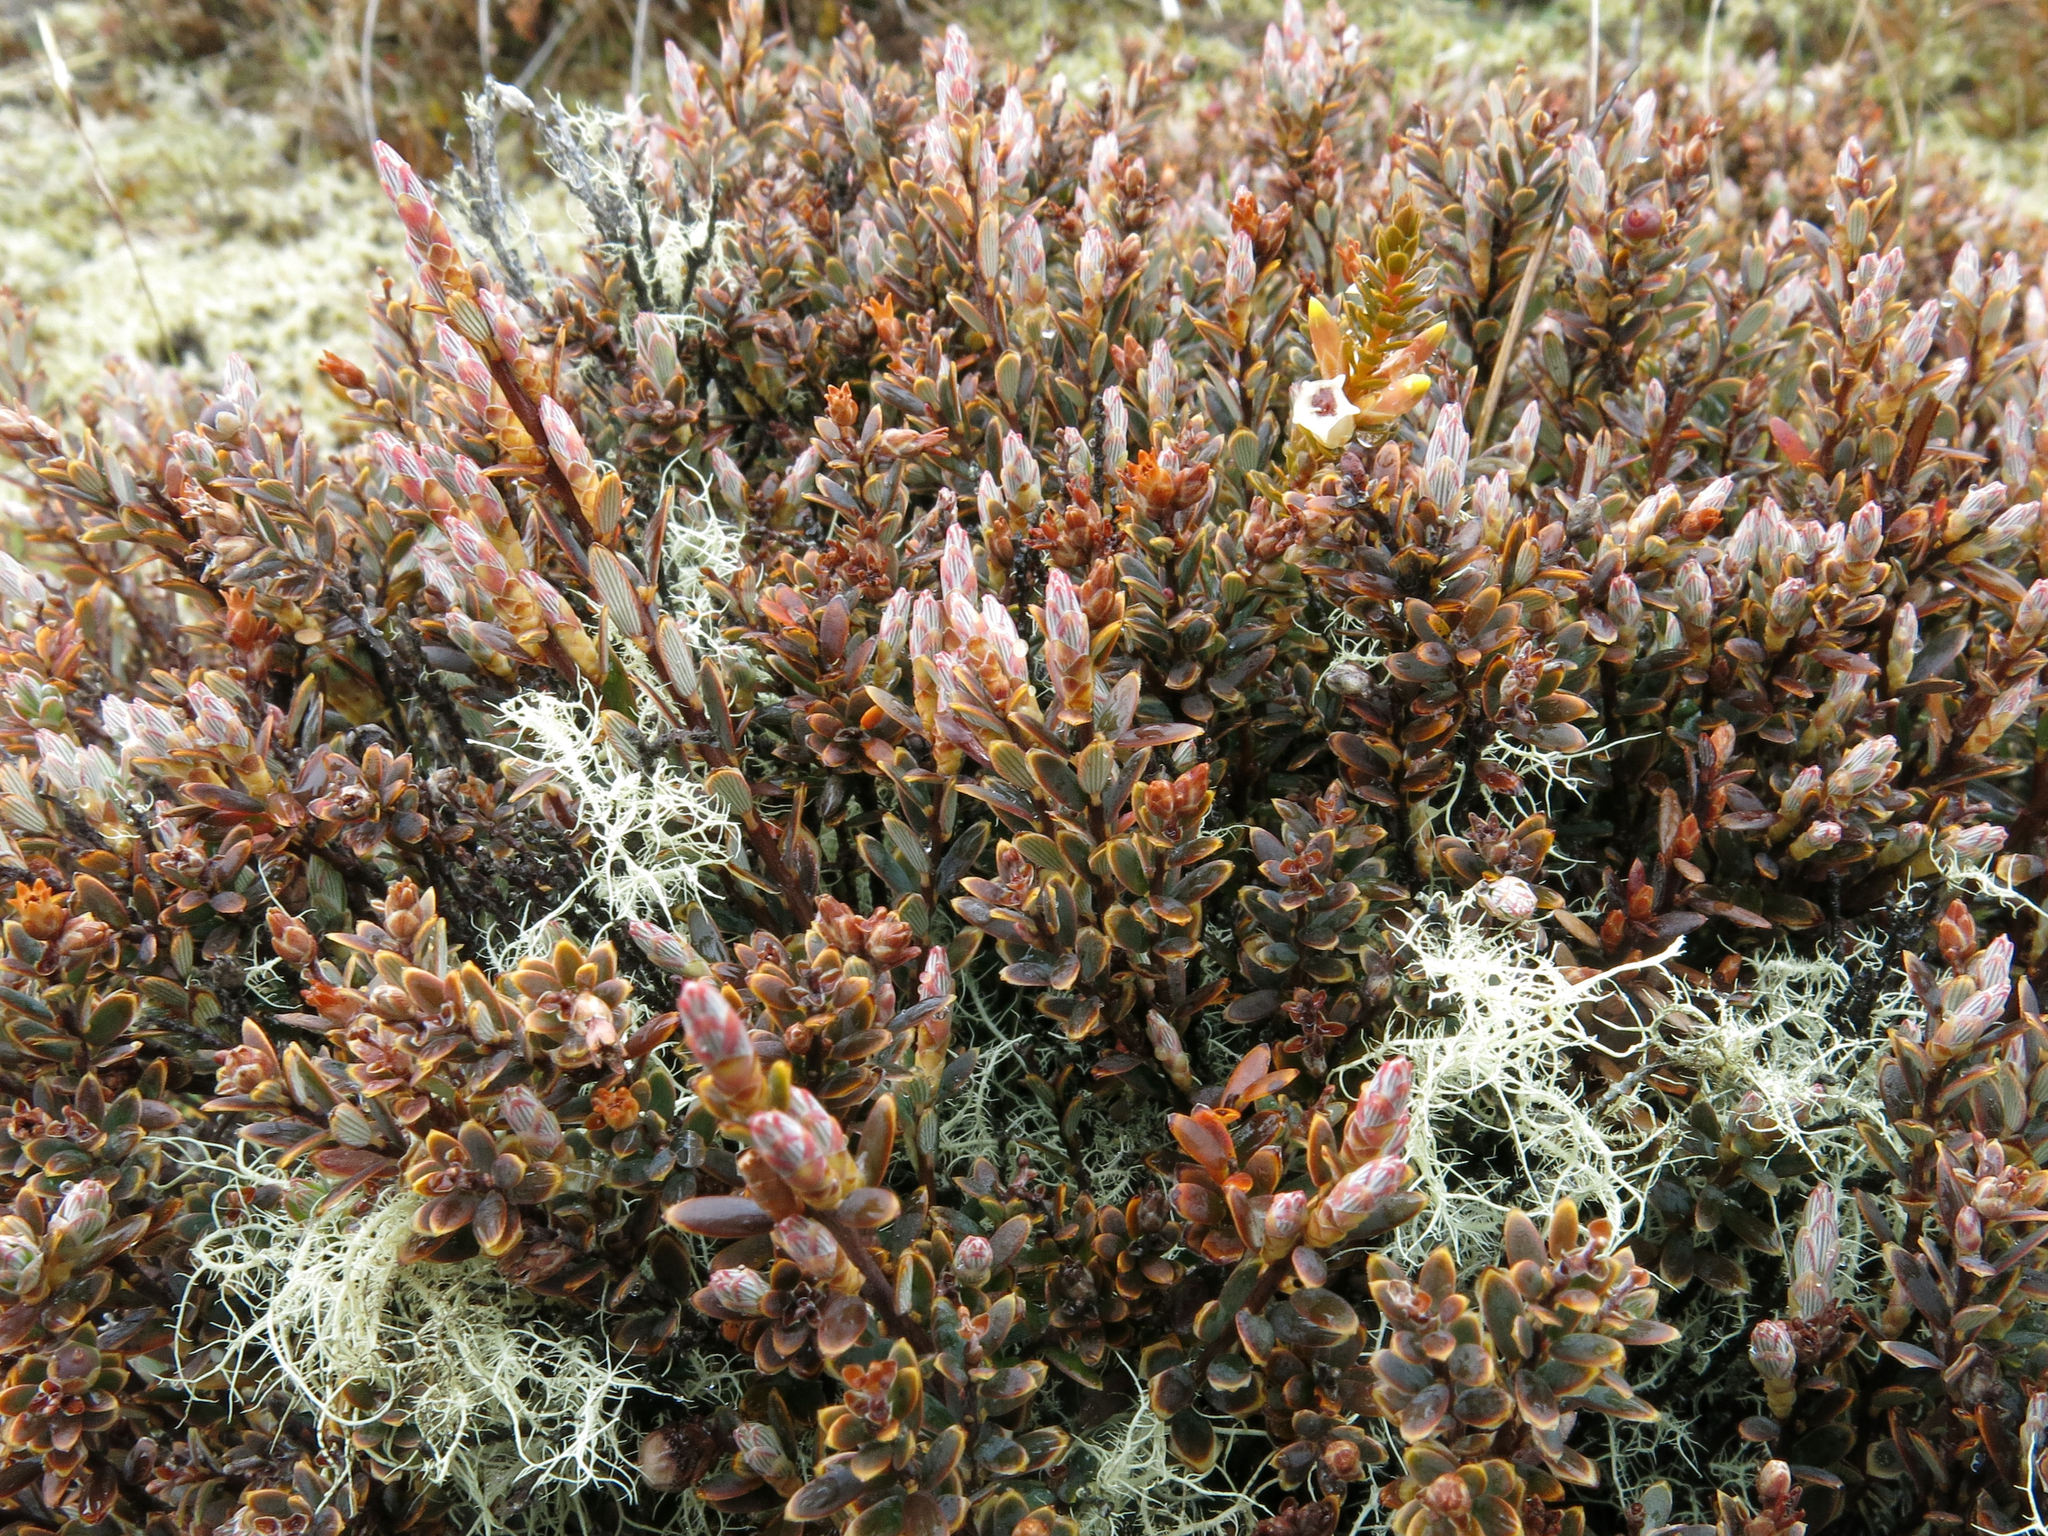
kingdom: Plantae
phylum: Tracheophyta
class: Magnoliopsida
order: Ericales
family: Ericaceae
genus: Acrothamnus
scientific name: Acrothamnus colensoi
